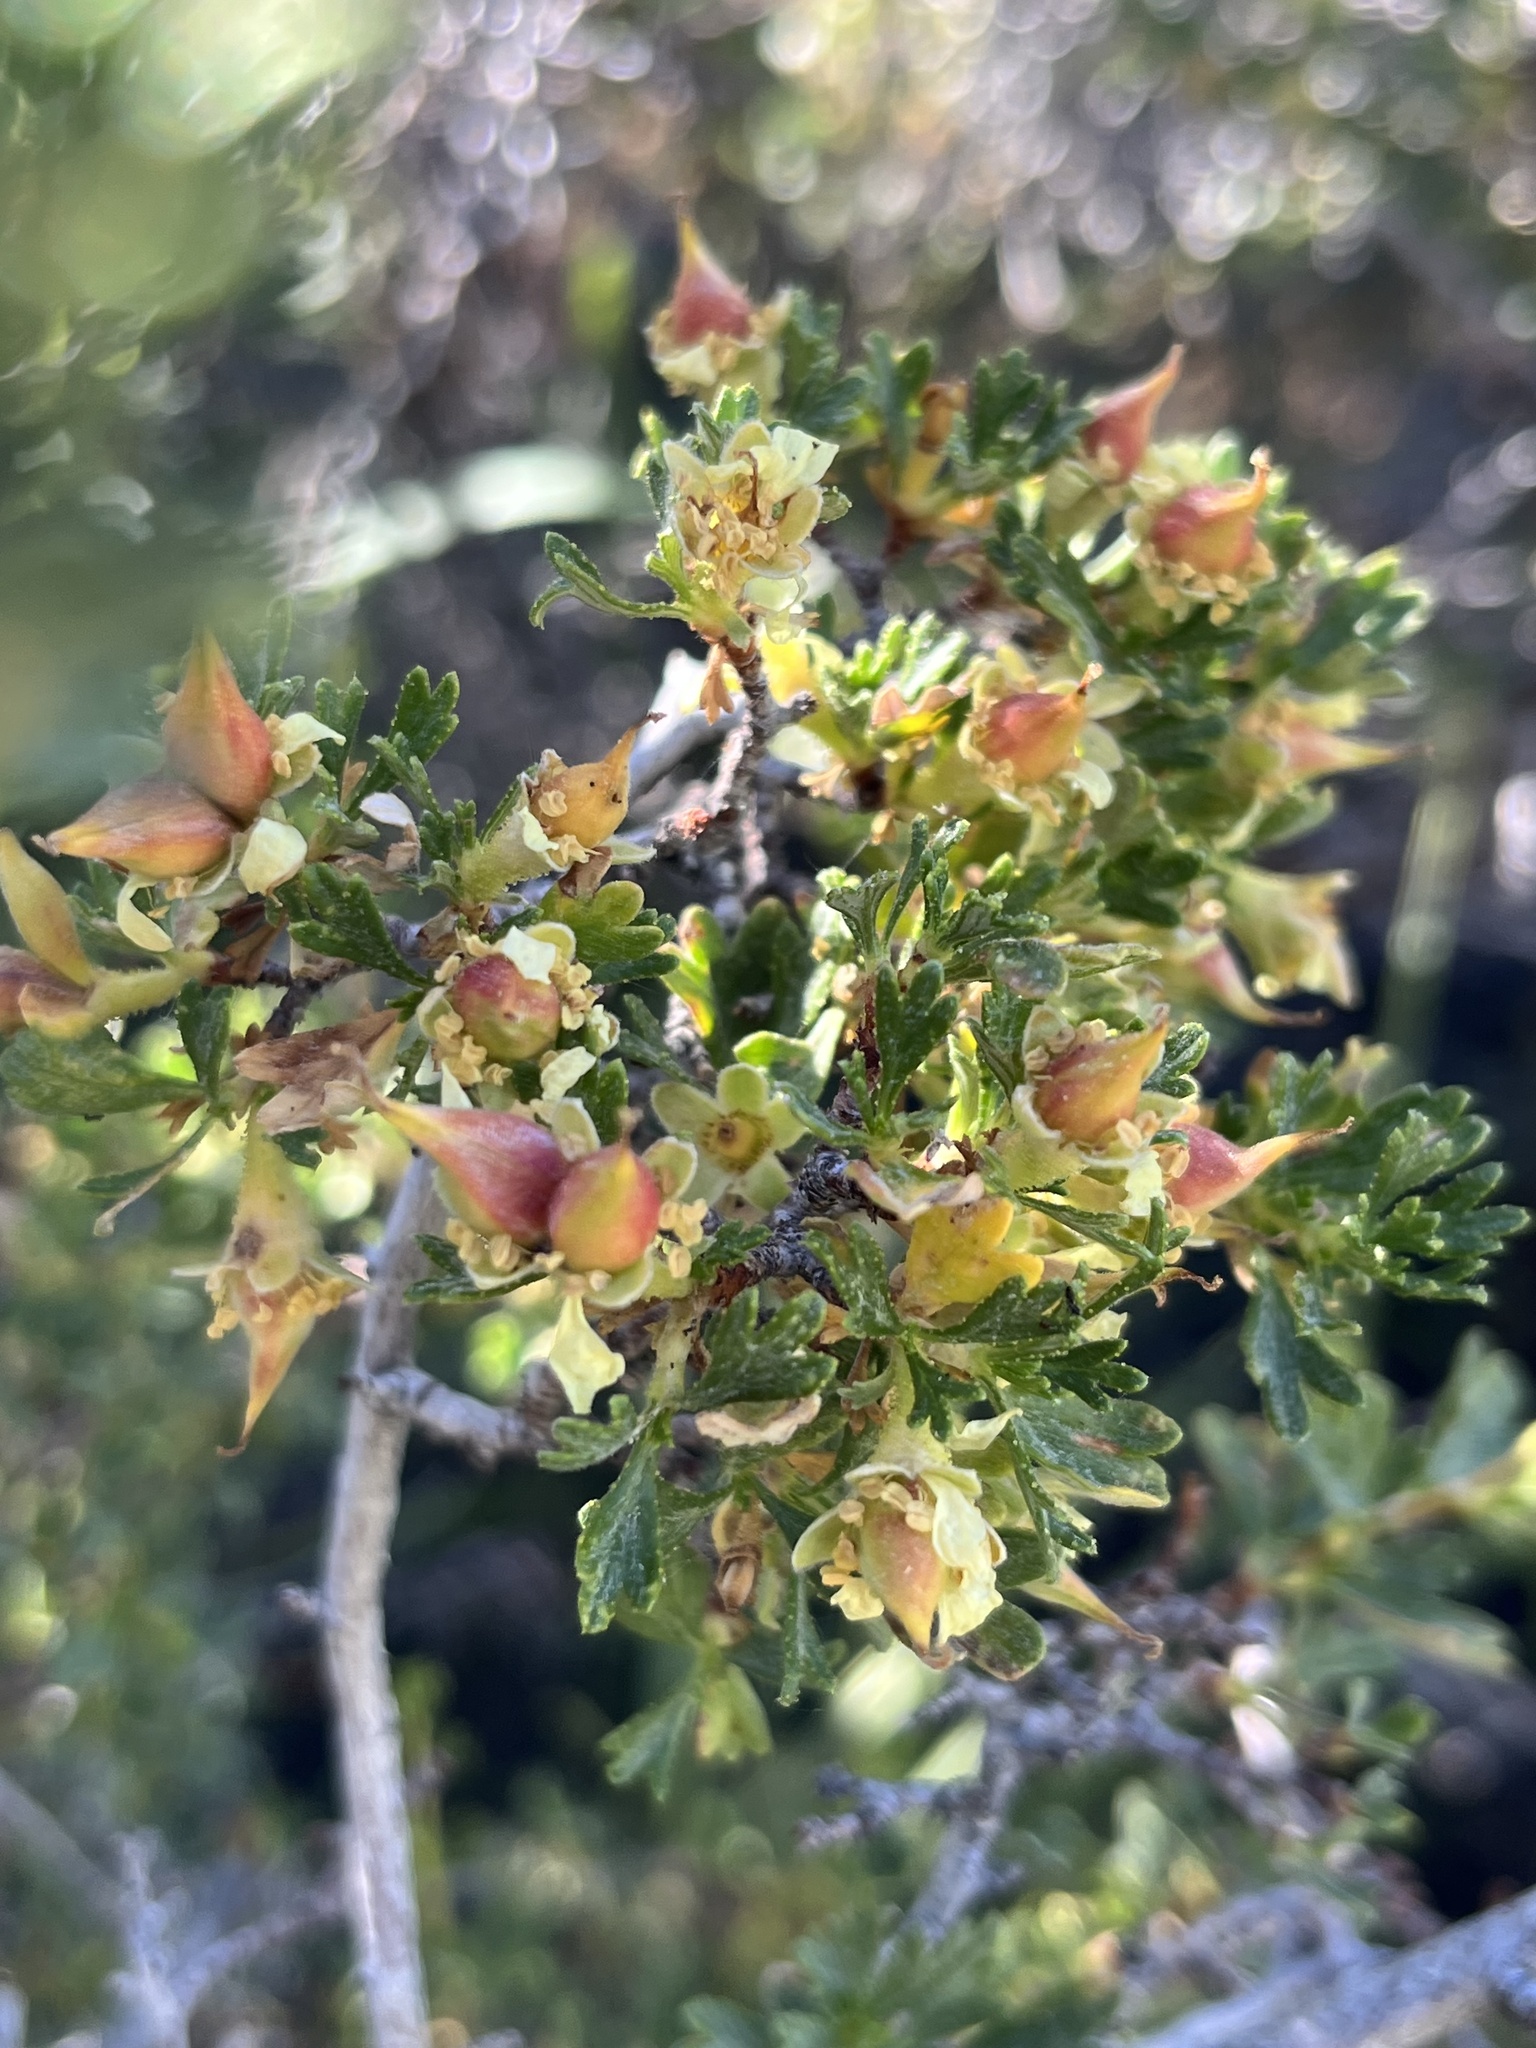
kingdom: Plantae
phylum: Tracheophyta
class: Magnoliopsida
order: Rosales
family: Rosaceae
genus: Purshia
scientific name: Purshia tridentata
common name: Antelope bitterbrush
